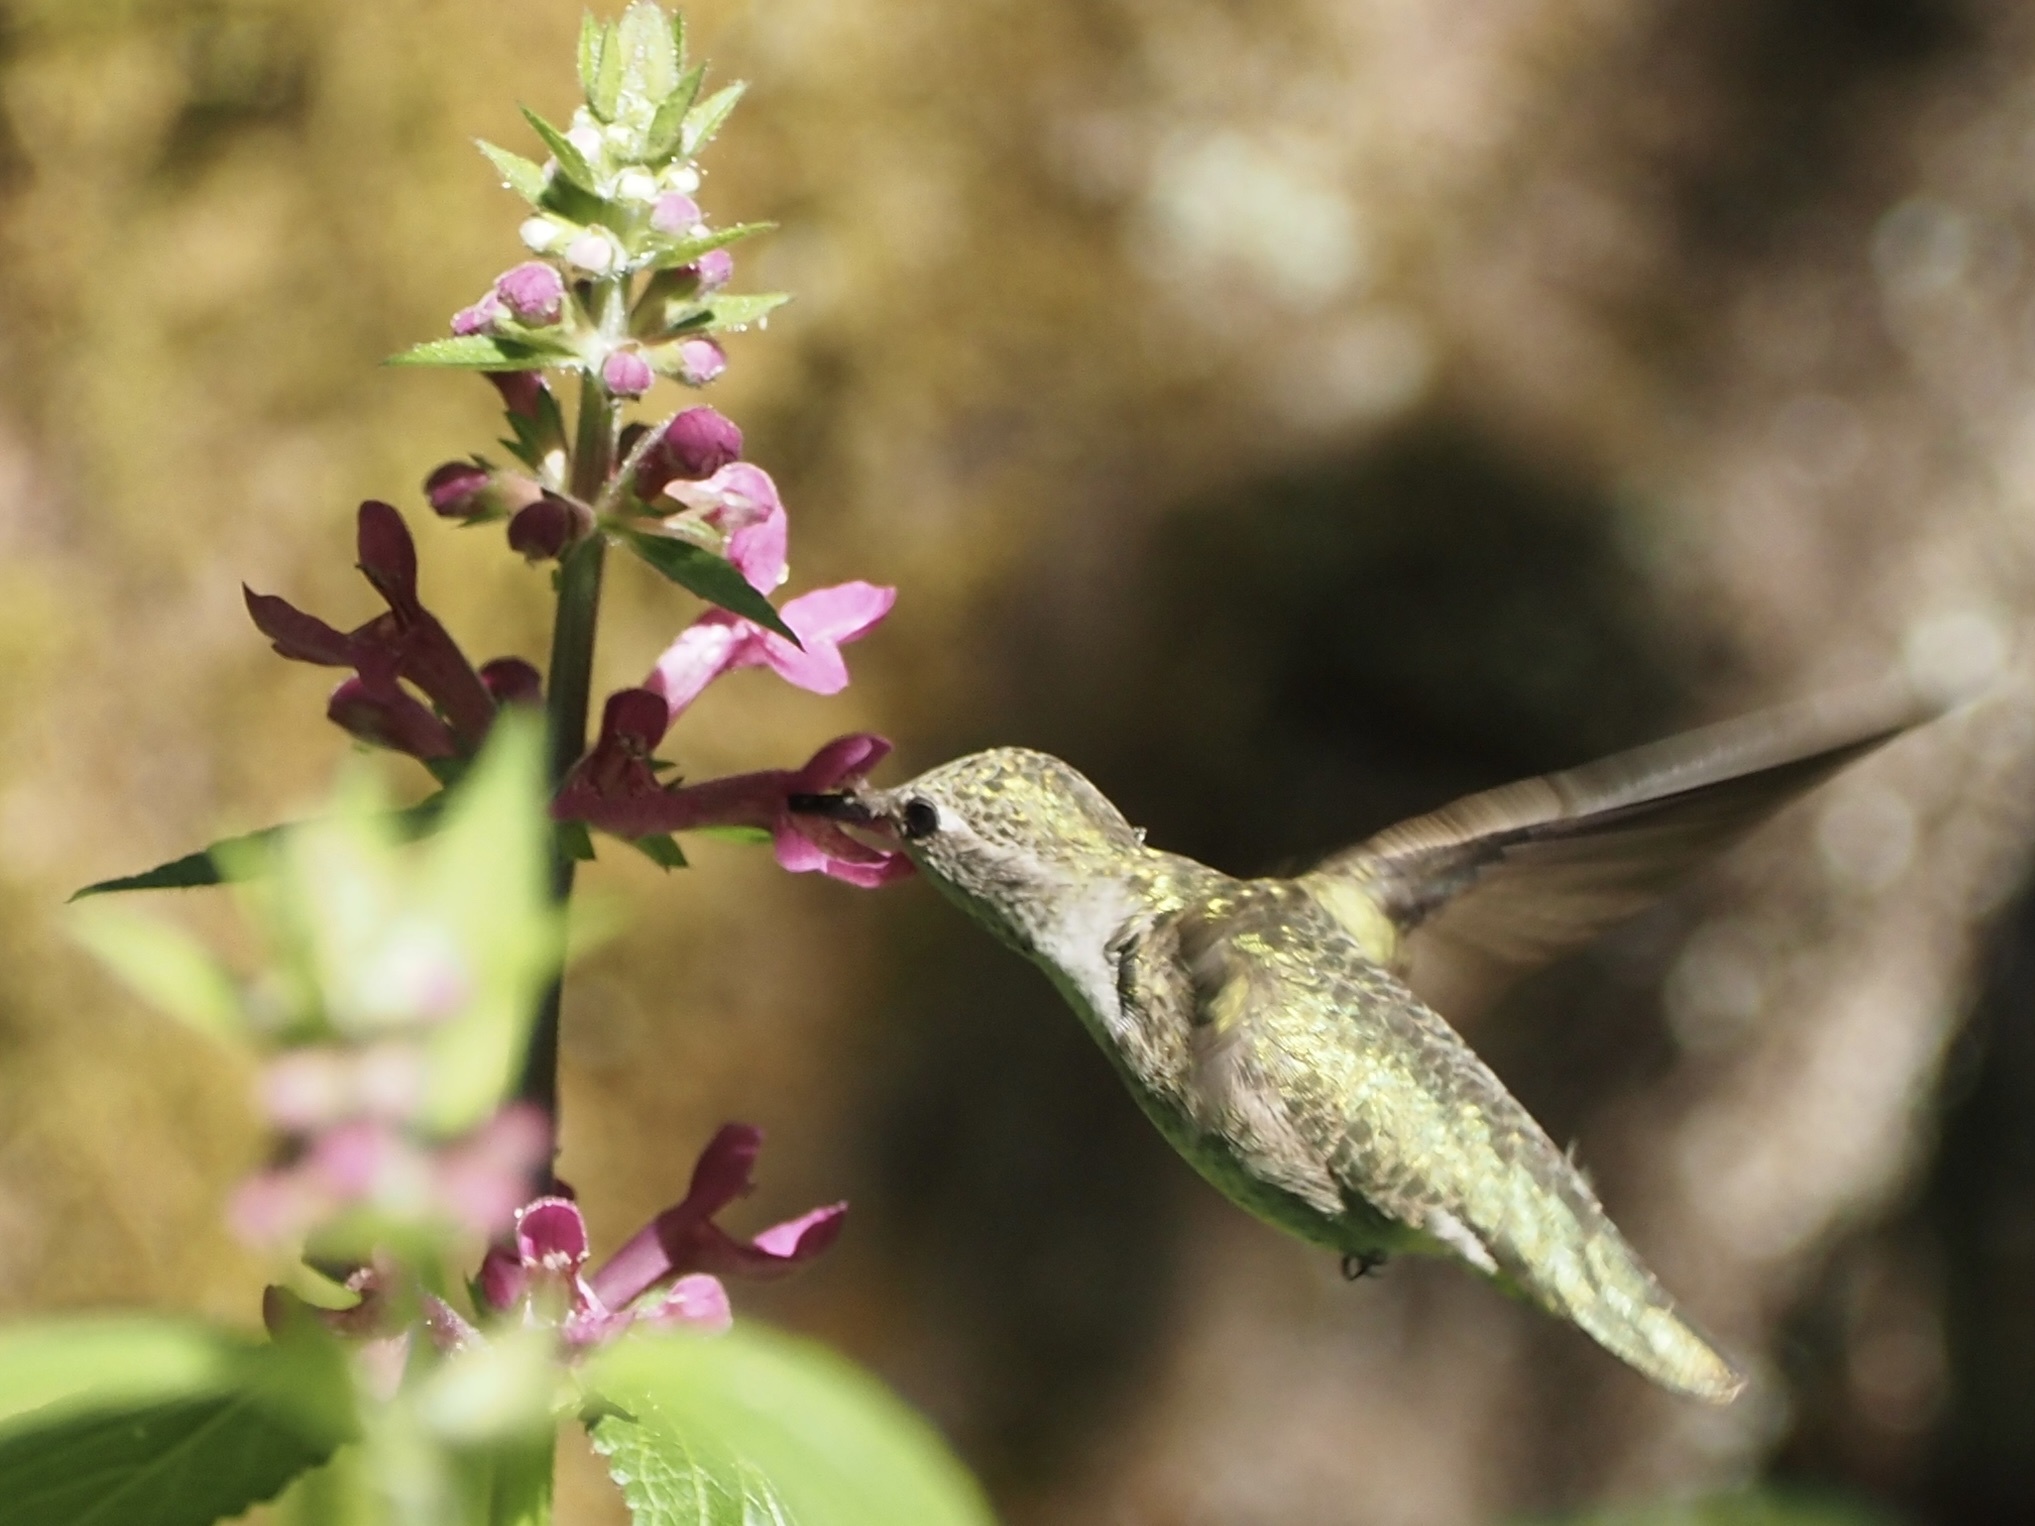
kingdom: Animalia
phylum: Chordata
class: Aves
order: Apodiformes
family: Trochilidae
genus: Calypte
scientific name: Calypte anna
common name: Anna's hummingbird
